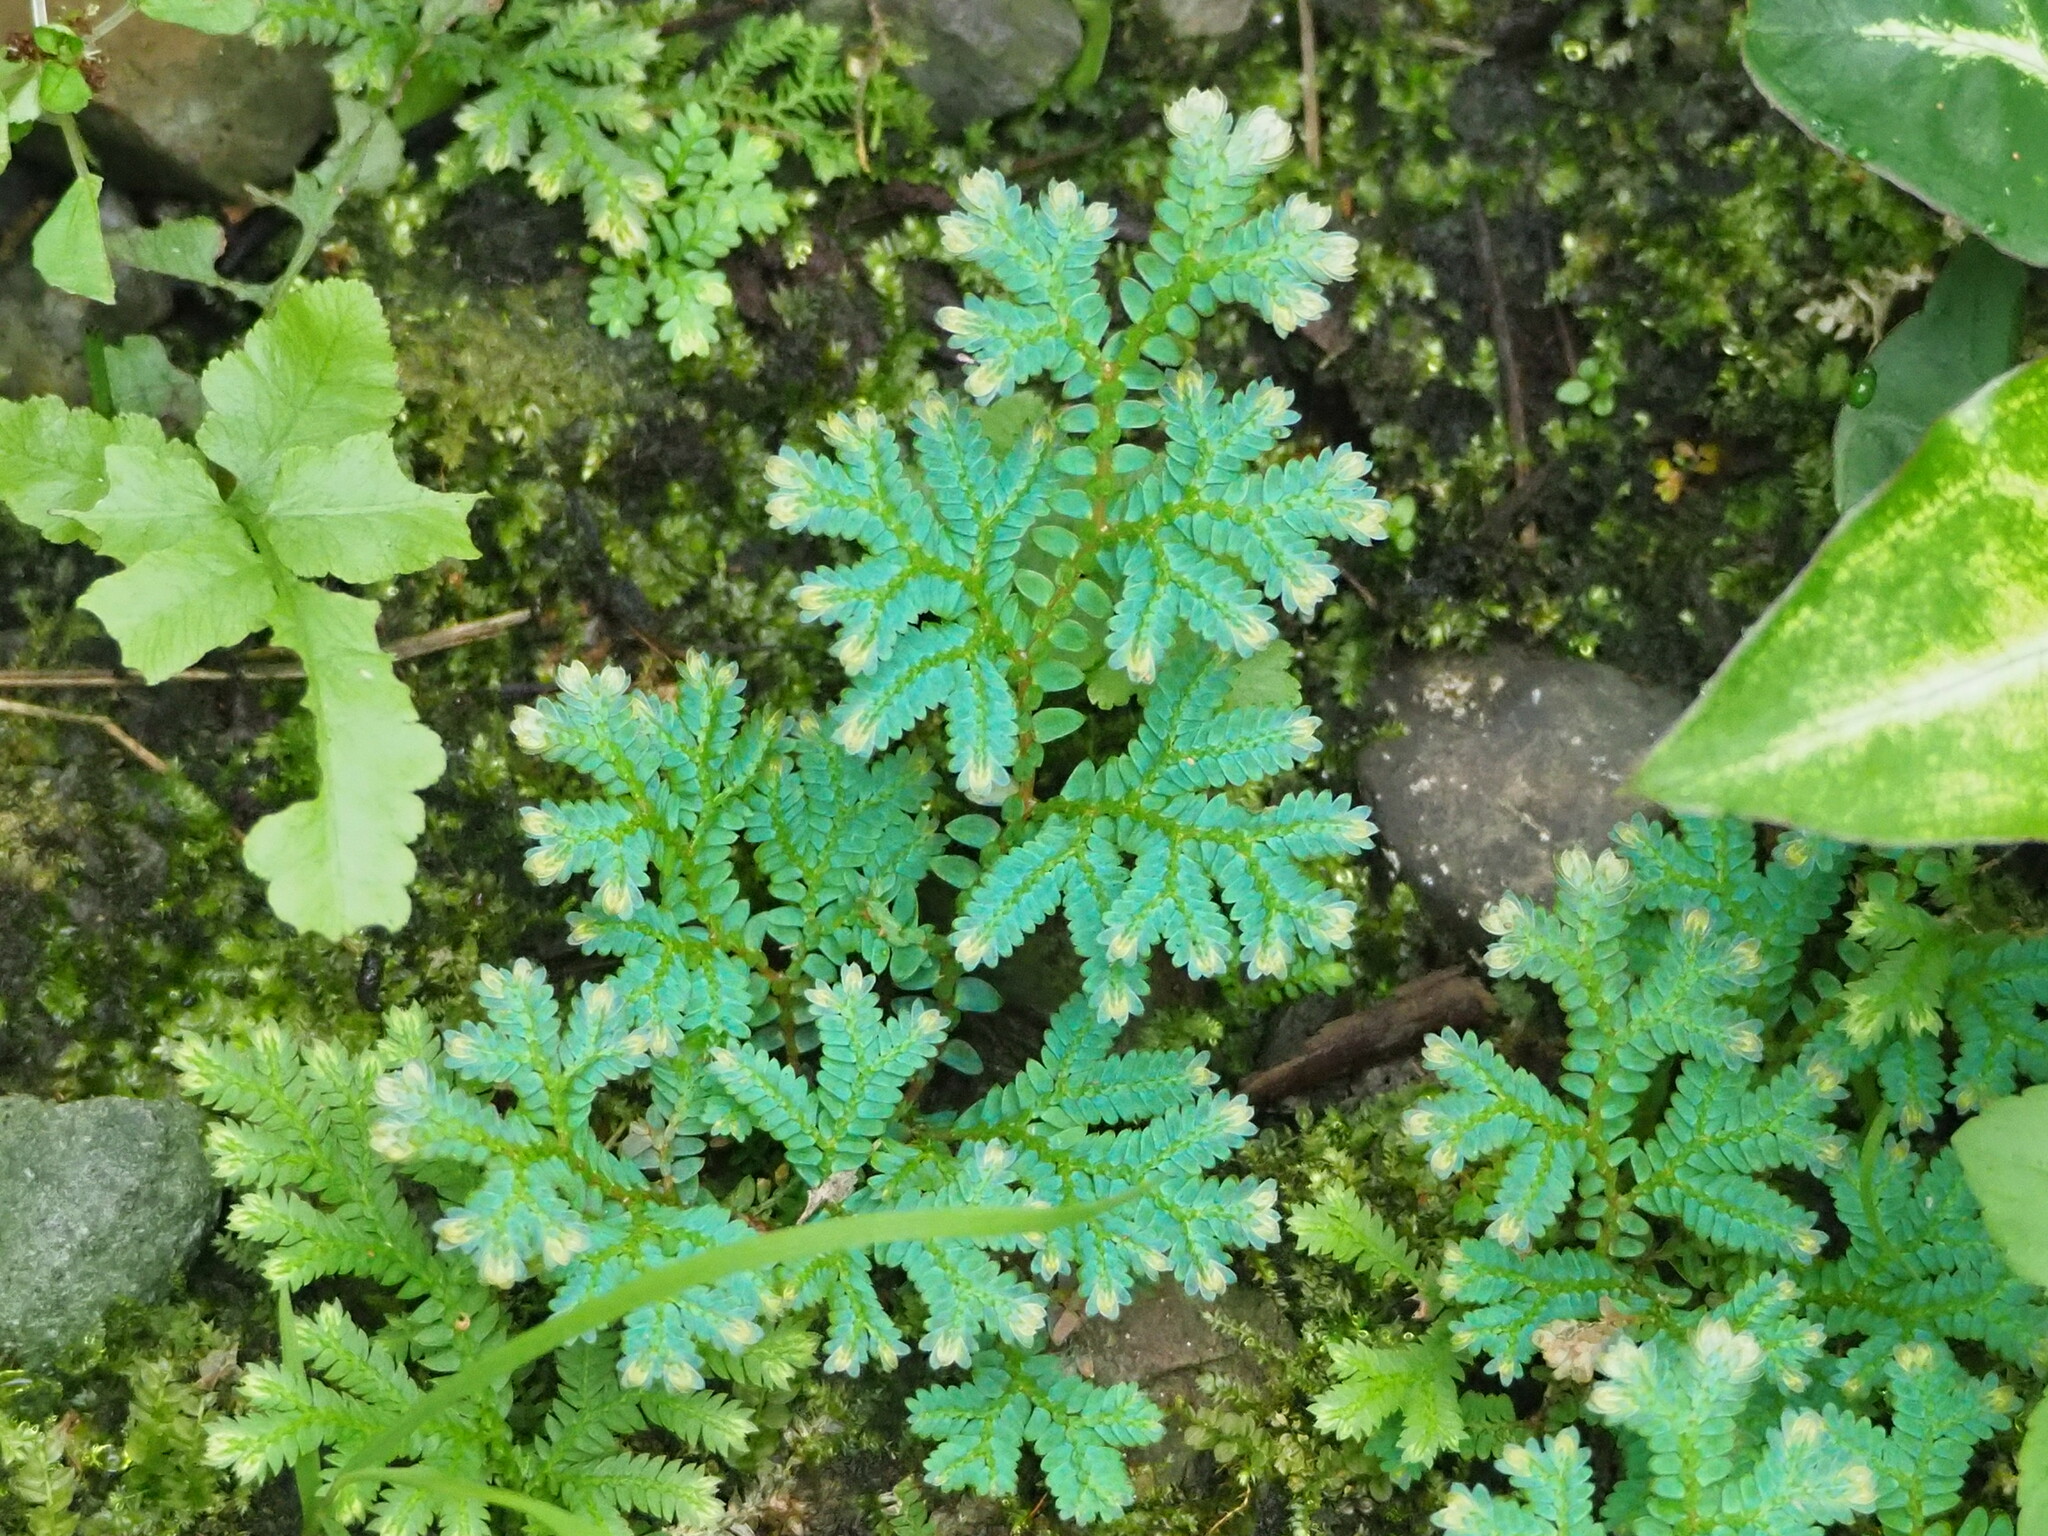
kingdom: Plantae
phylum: Tracheophyta
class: Lycopodiopsida
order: Selaginellales
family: Selaginellaceae
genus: Selaginella
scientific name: Selaginella uncinata
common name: Blue spikemoss
